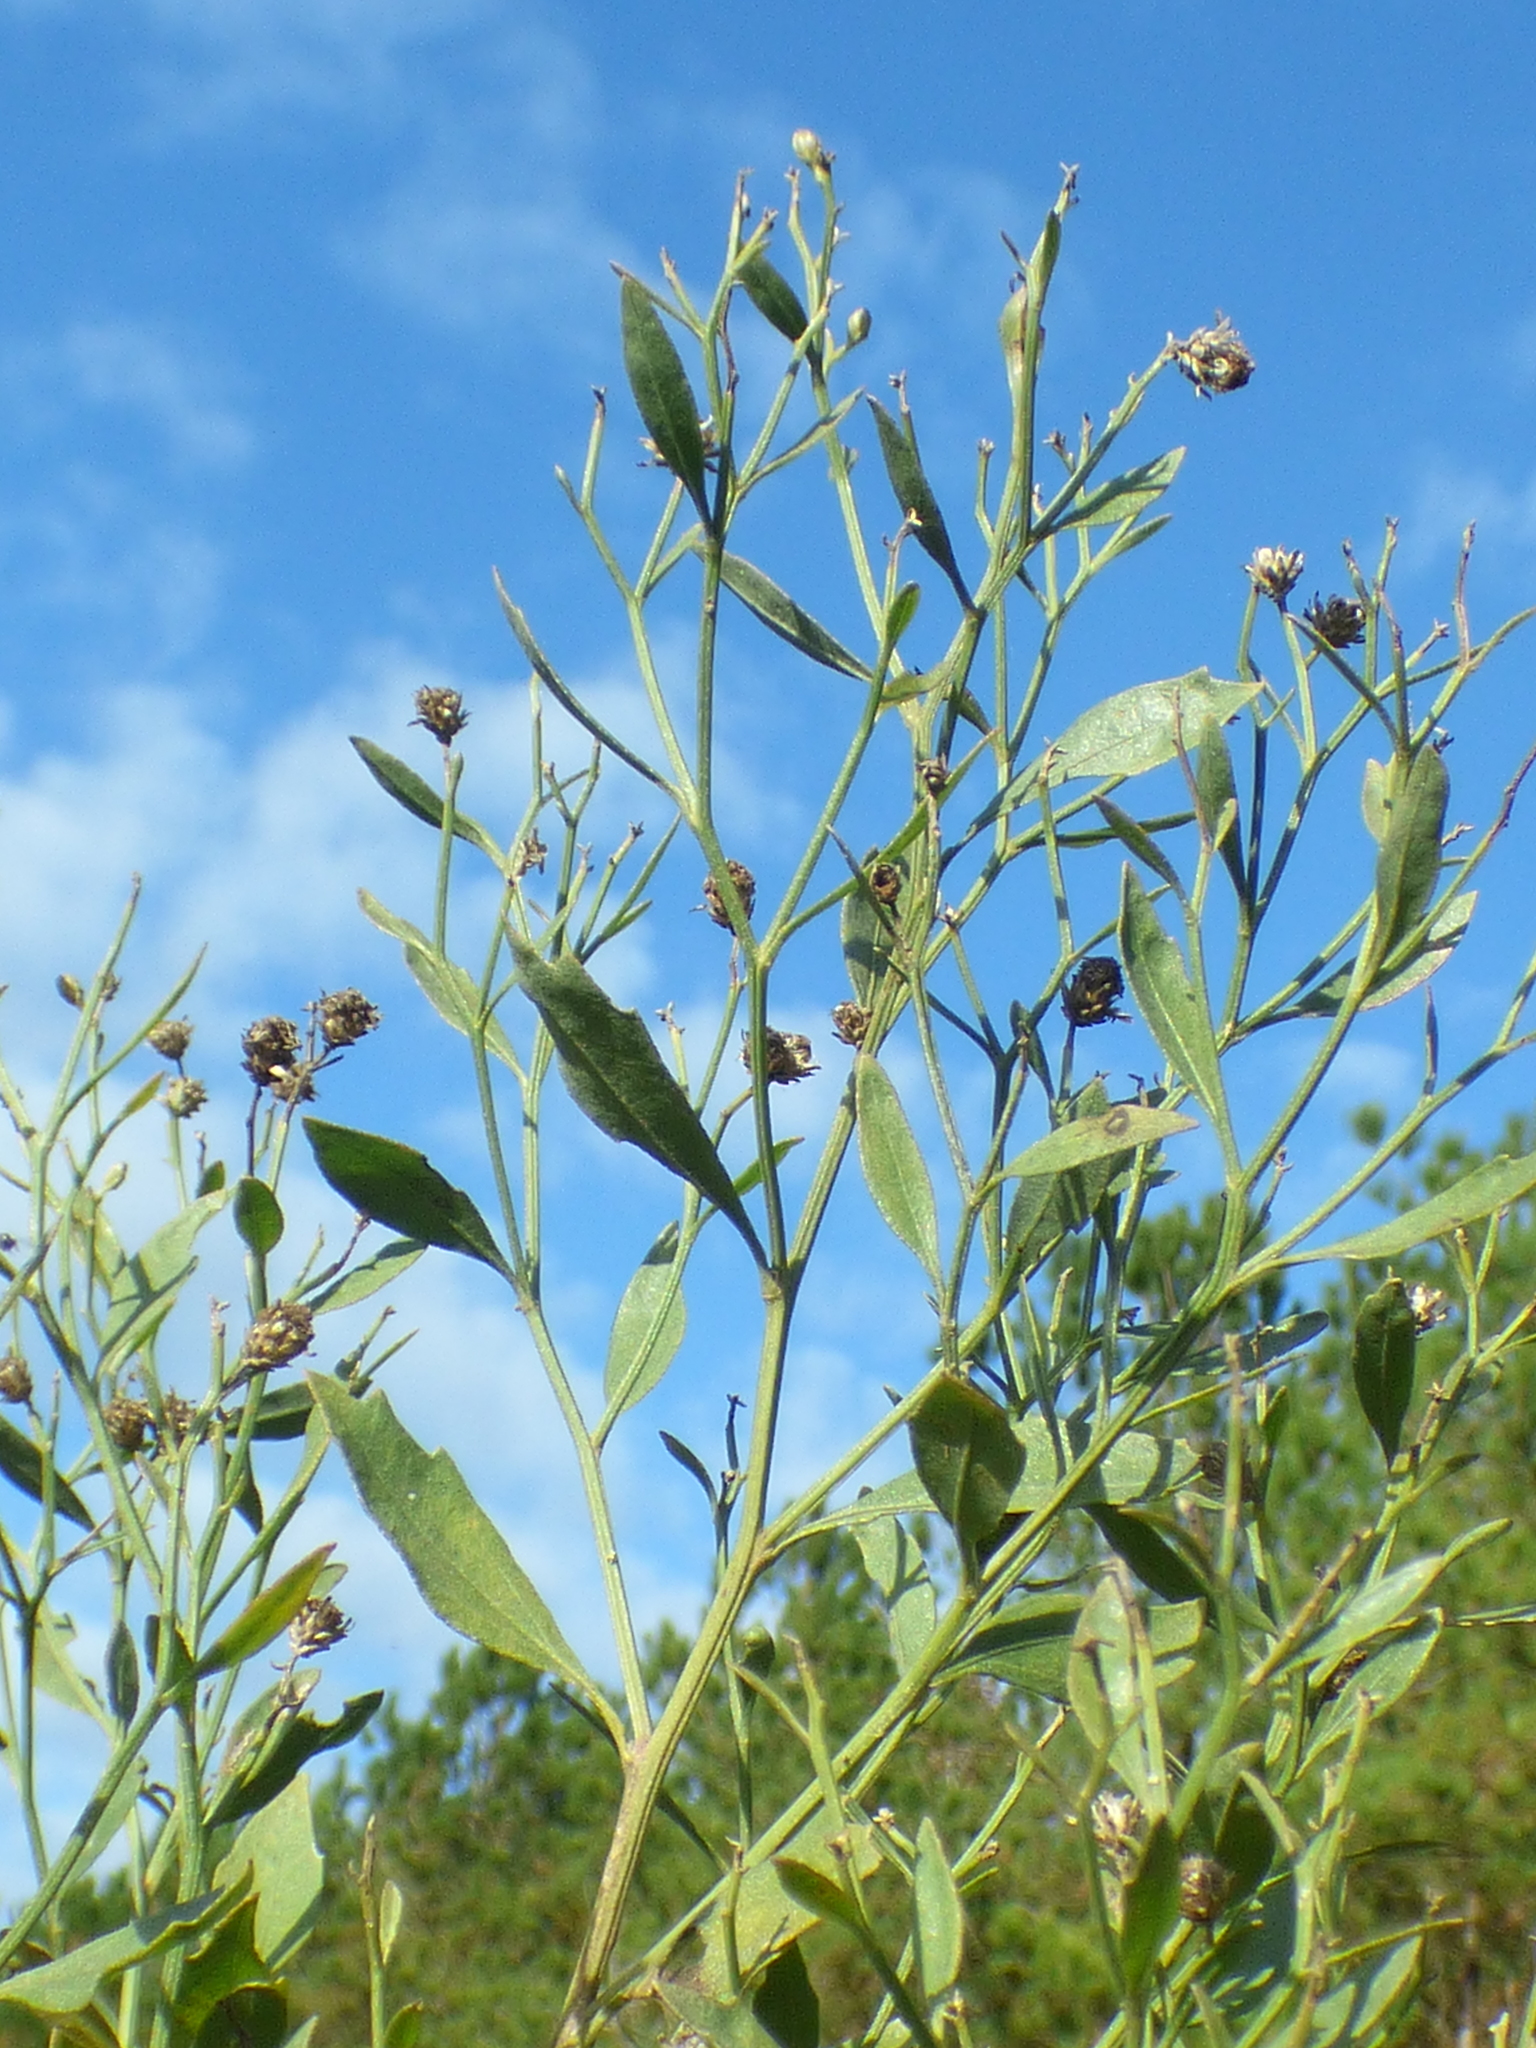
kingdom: Plantae
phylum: Tracheophyta
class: Magnoliopsida
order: Asterales
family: Asteraceae
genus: Baccharis
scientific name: Baccharis halimifolia
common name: Eastern baccharis
